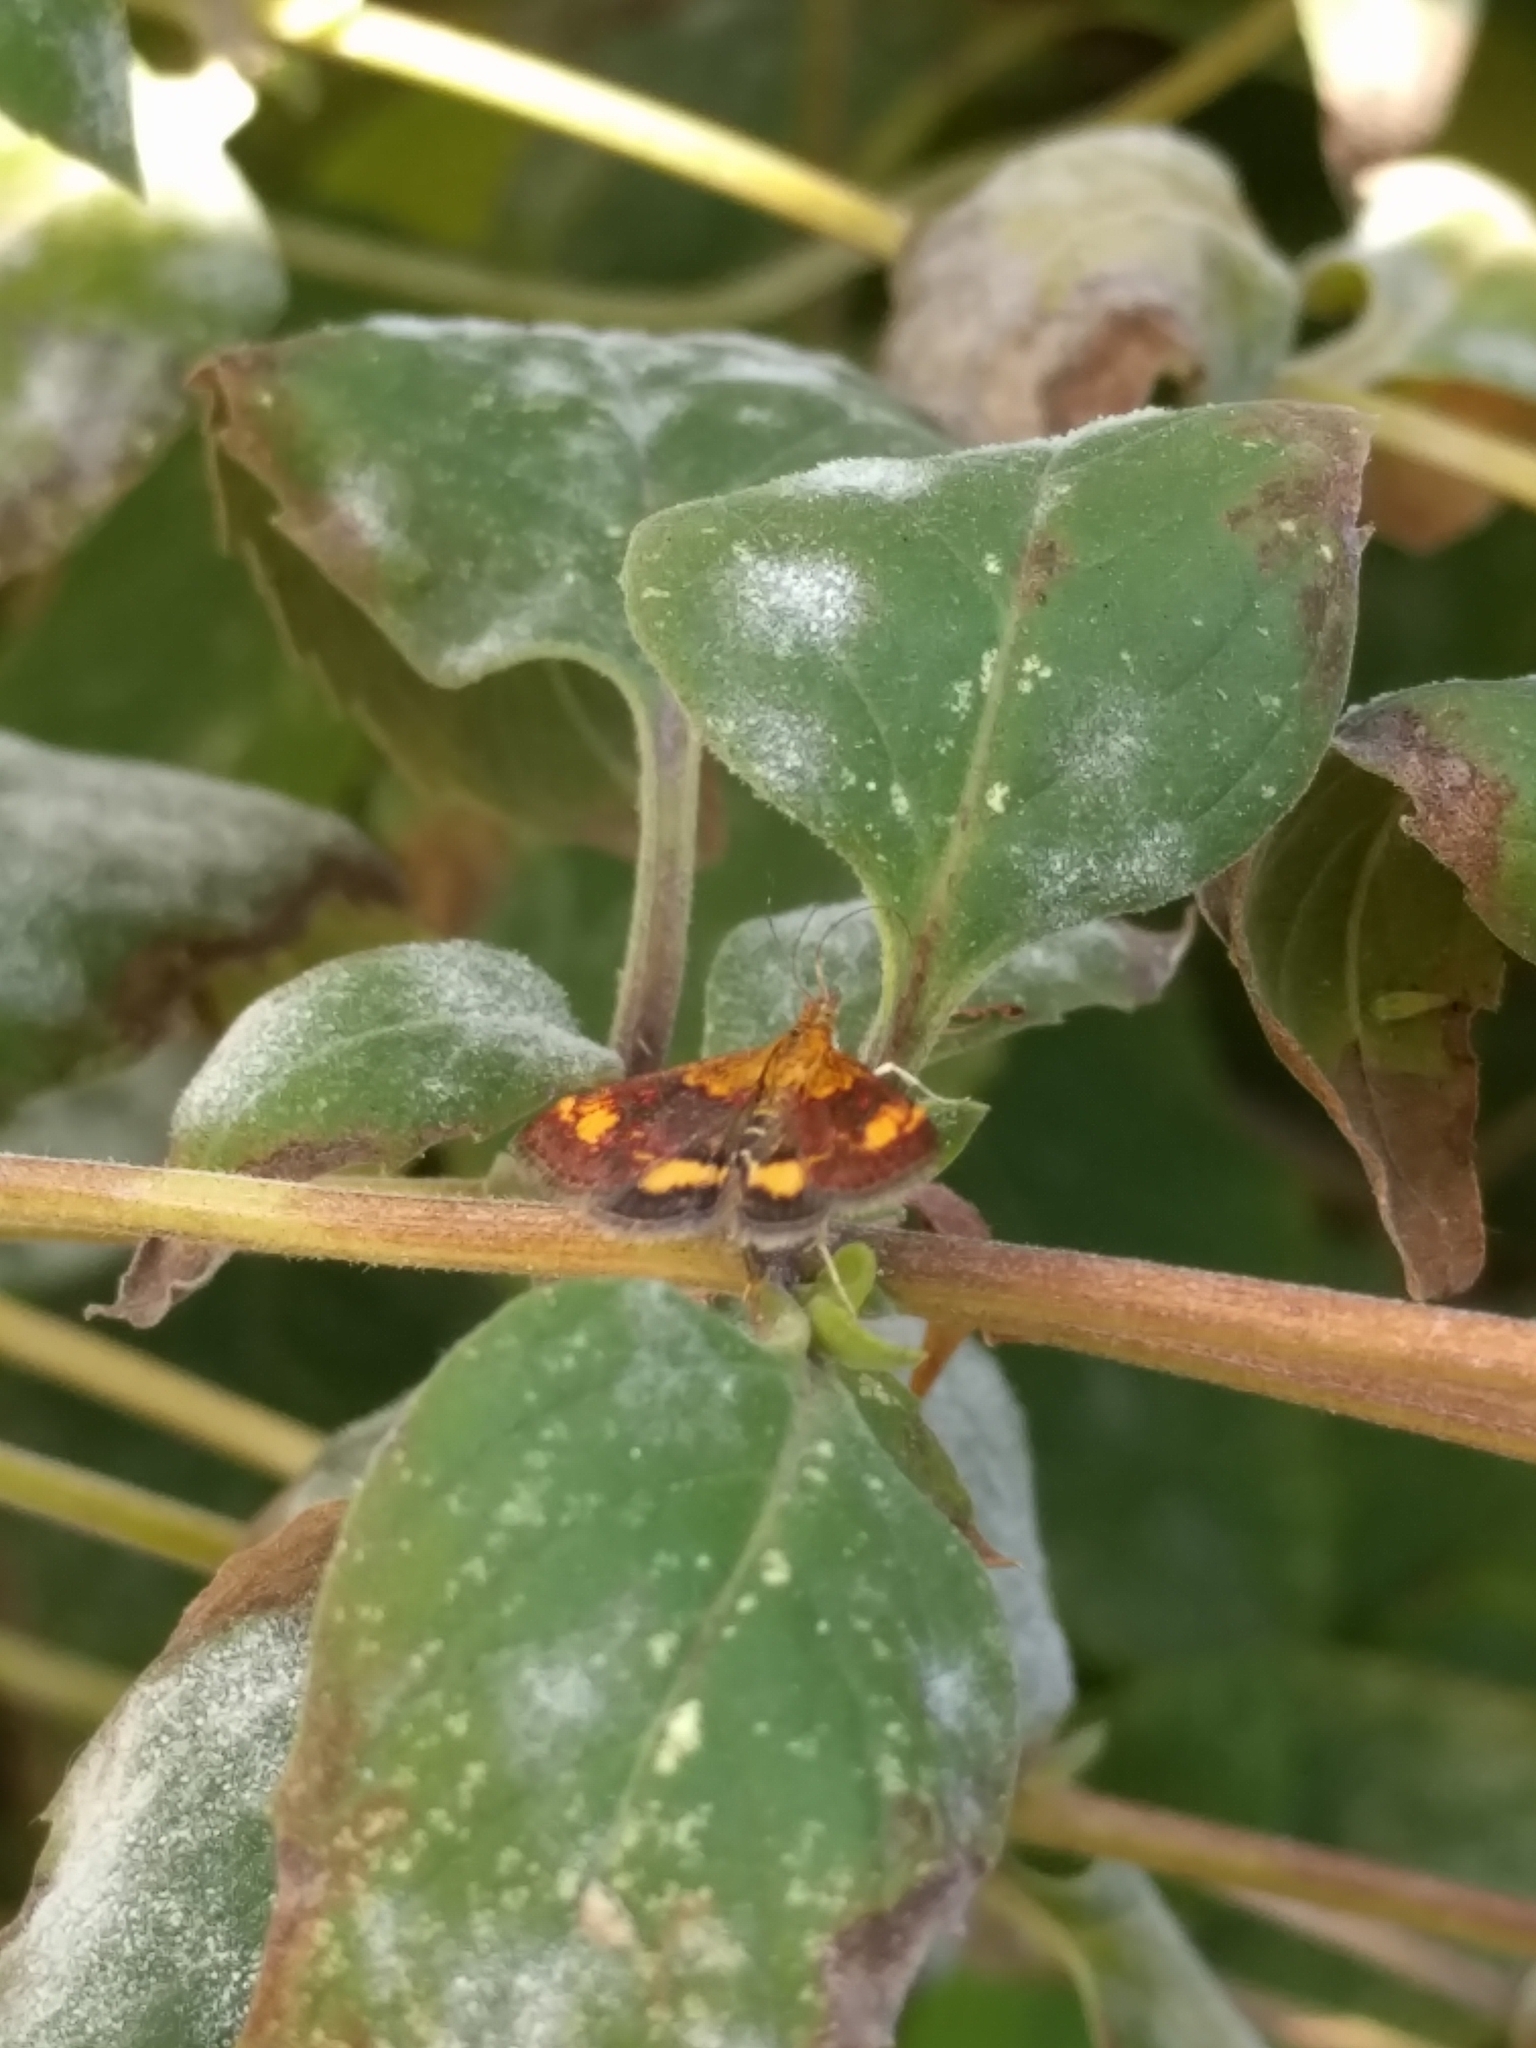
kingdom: Animalia
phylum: Arthropoda
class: Insecta
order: Lepidoptera
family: Crambidae
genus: Pyrausta
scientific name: Pyrausta orphisalis
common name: Orange mint moth
